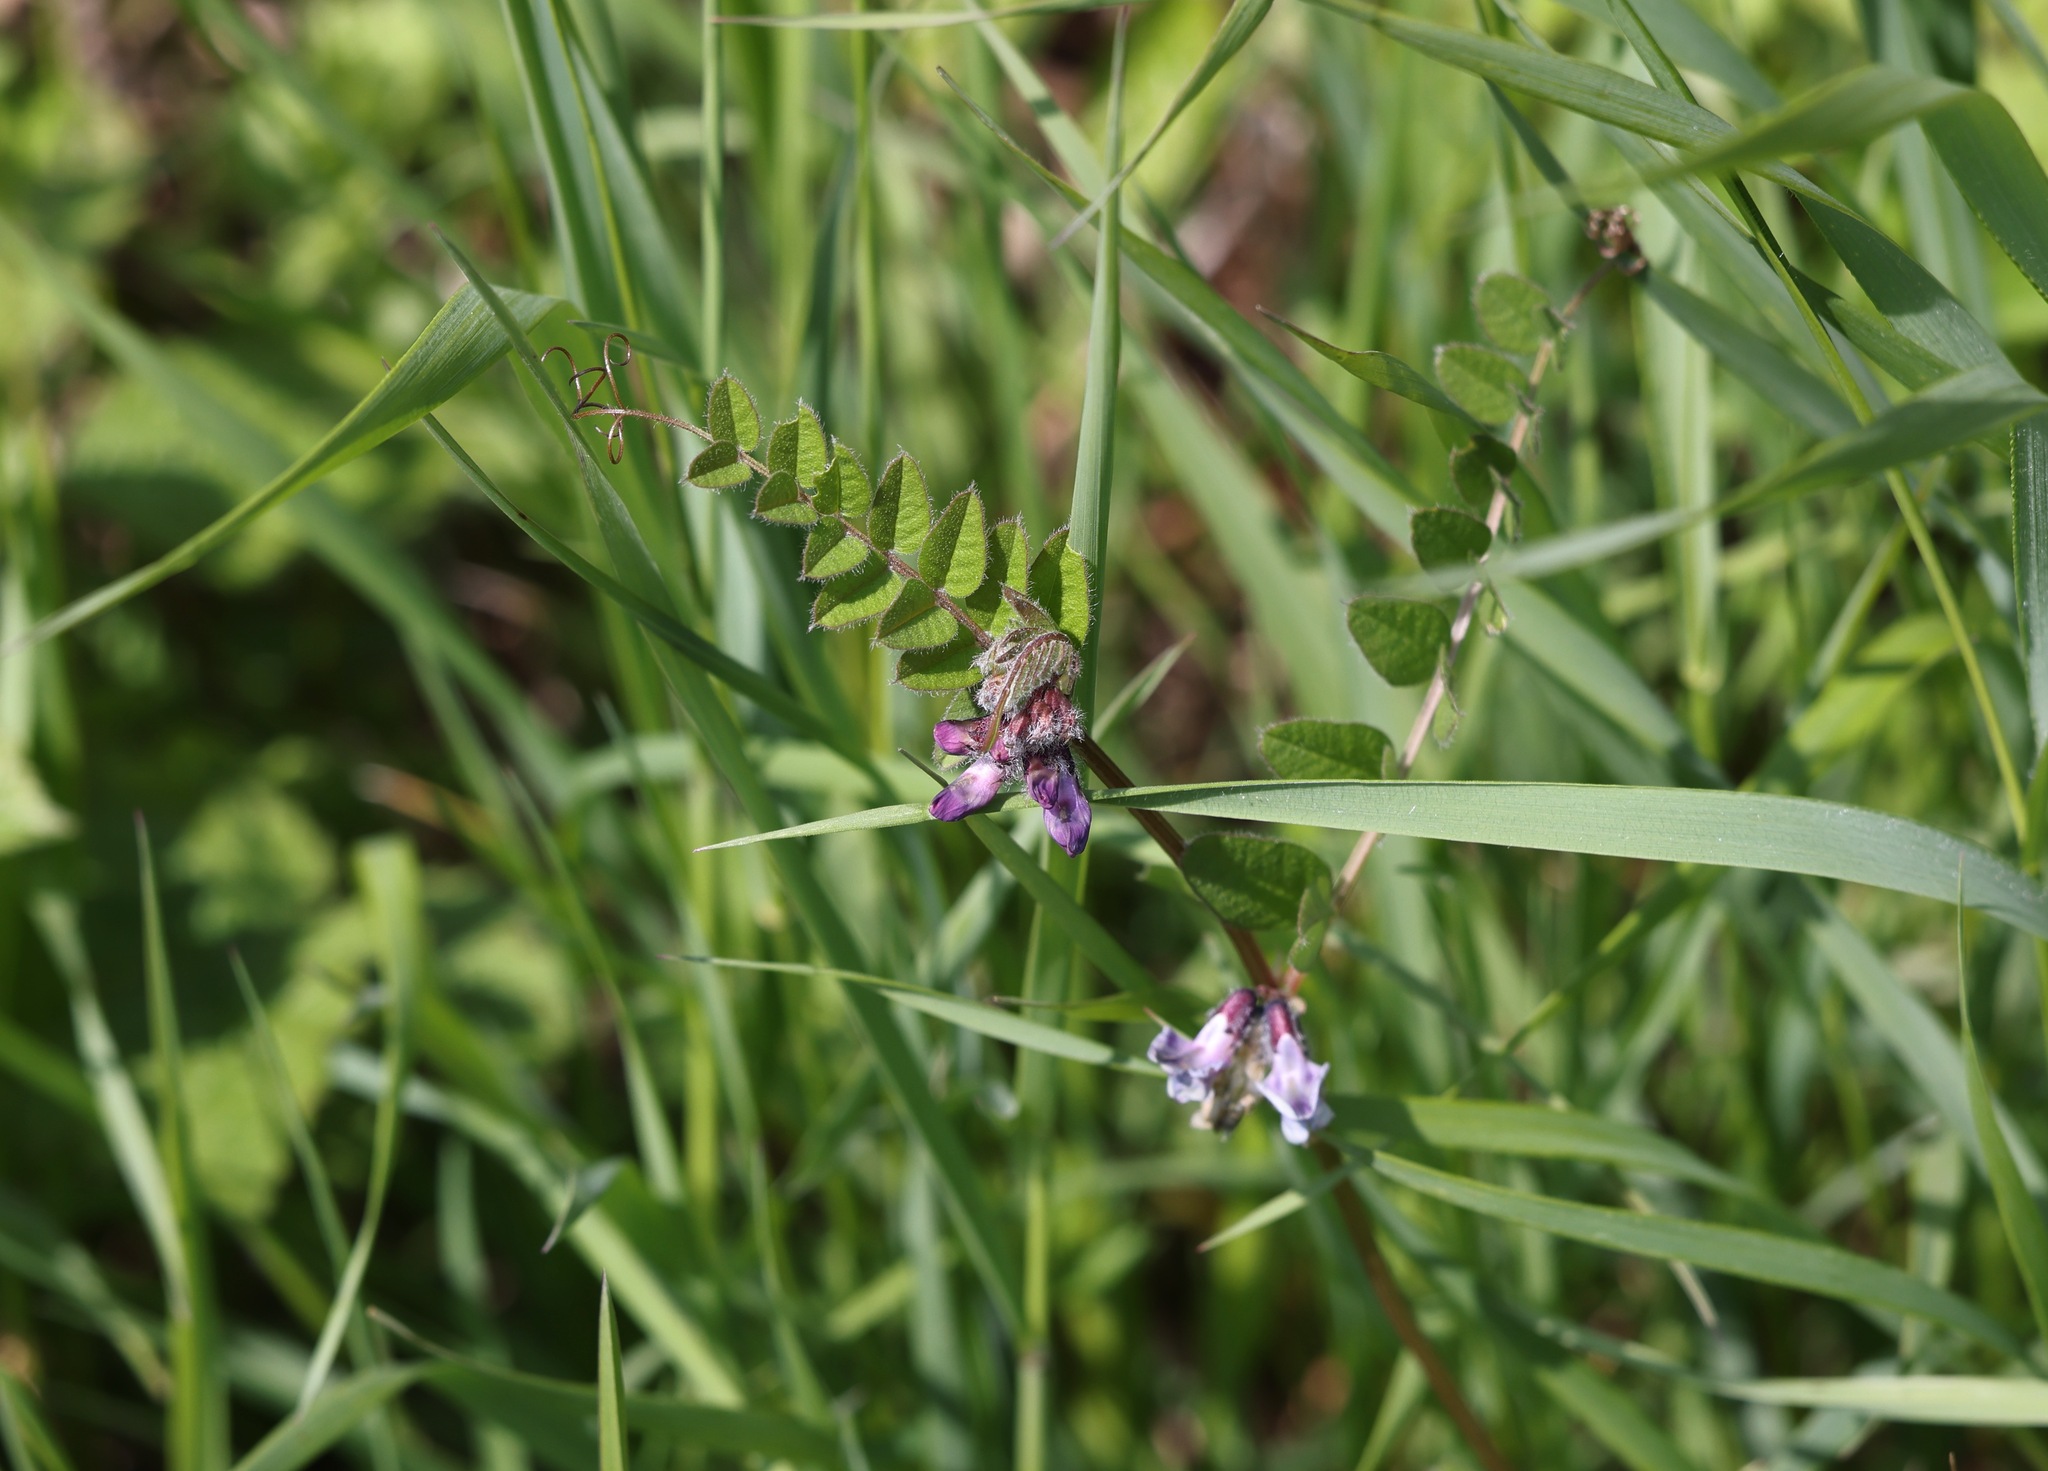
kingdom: Plantae
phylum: Tracheophyta
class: Magnoliopsida
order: Fabales
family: Fabaceae
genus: Vicia
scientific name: Vicia sepium
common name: Bush vetch
